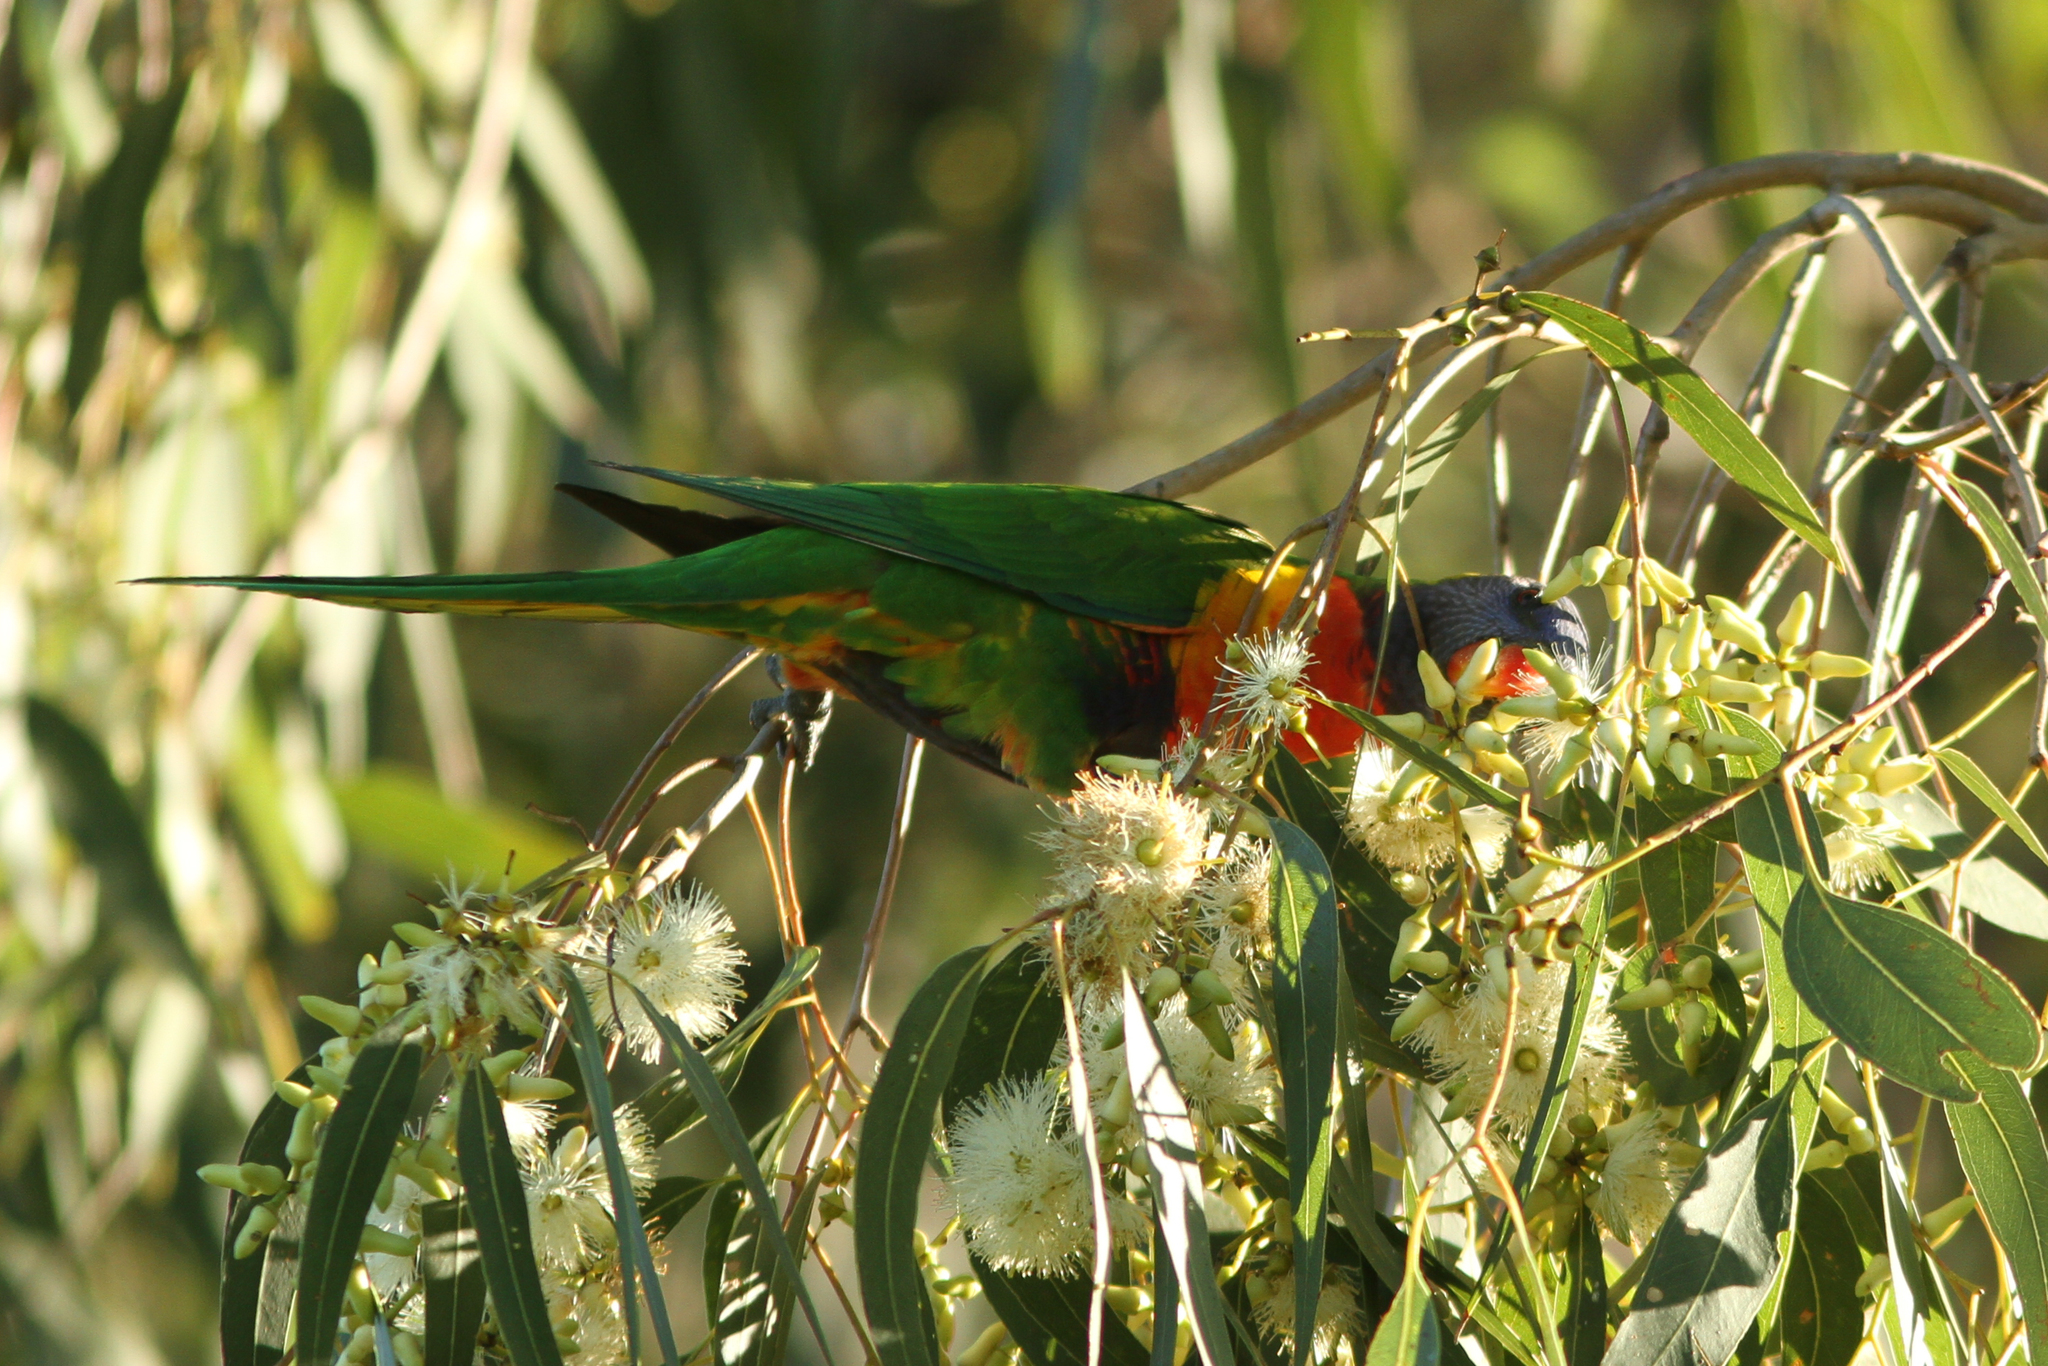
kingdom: Animalia
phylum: Chordata
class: Aves
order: Psittaciformes
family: Psittacidae
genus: Trichoglossus
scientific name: Trichoglossus haematodus
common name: Coconut lorikeet
